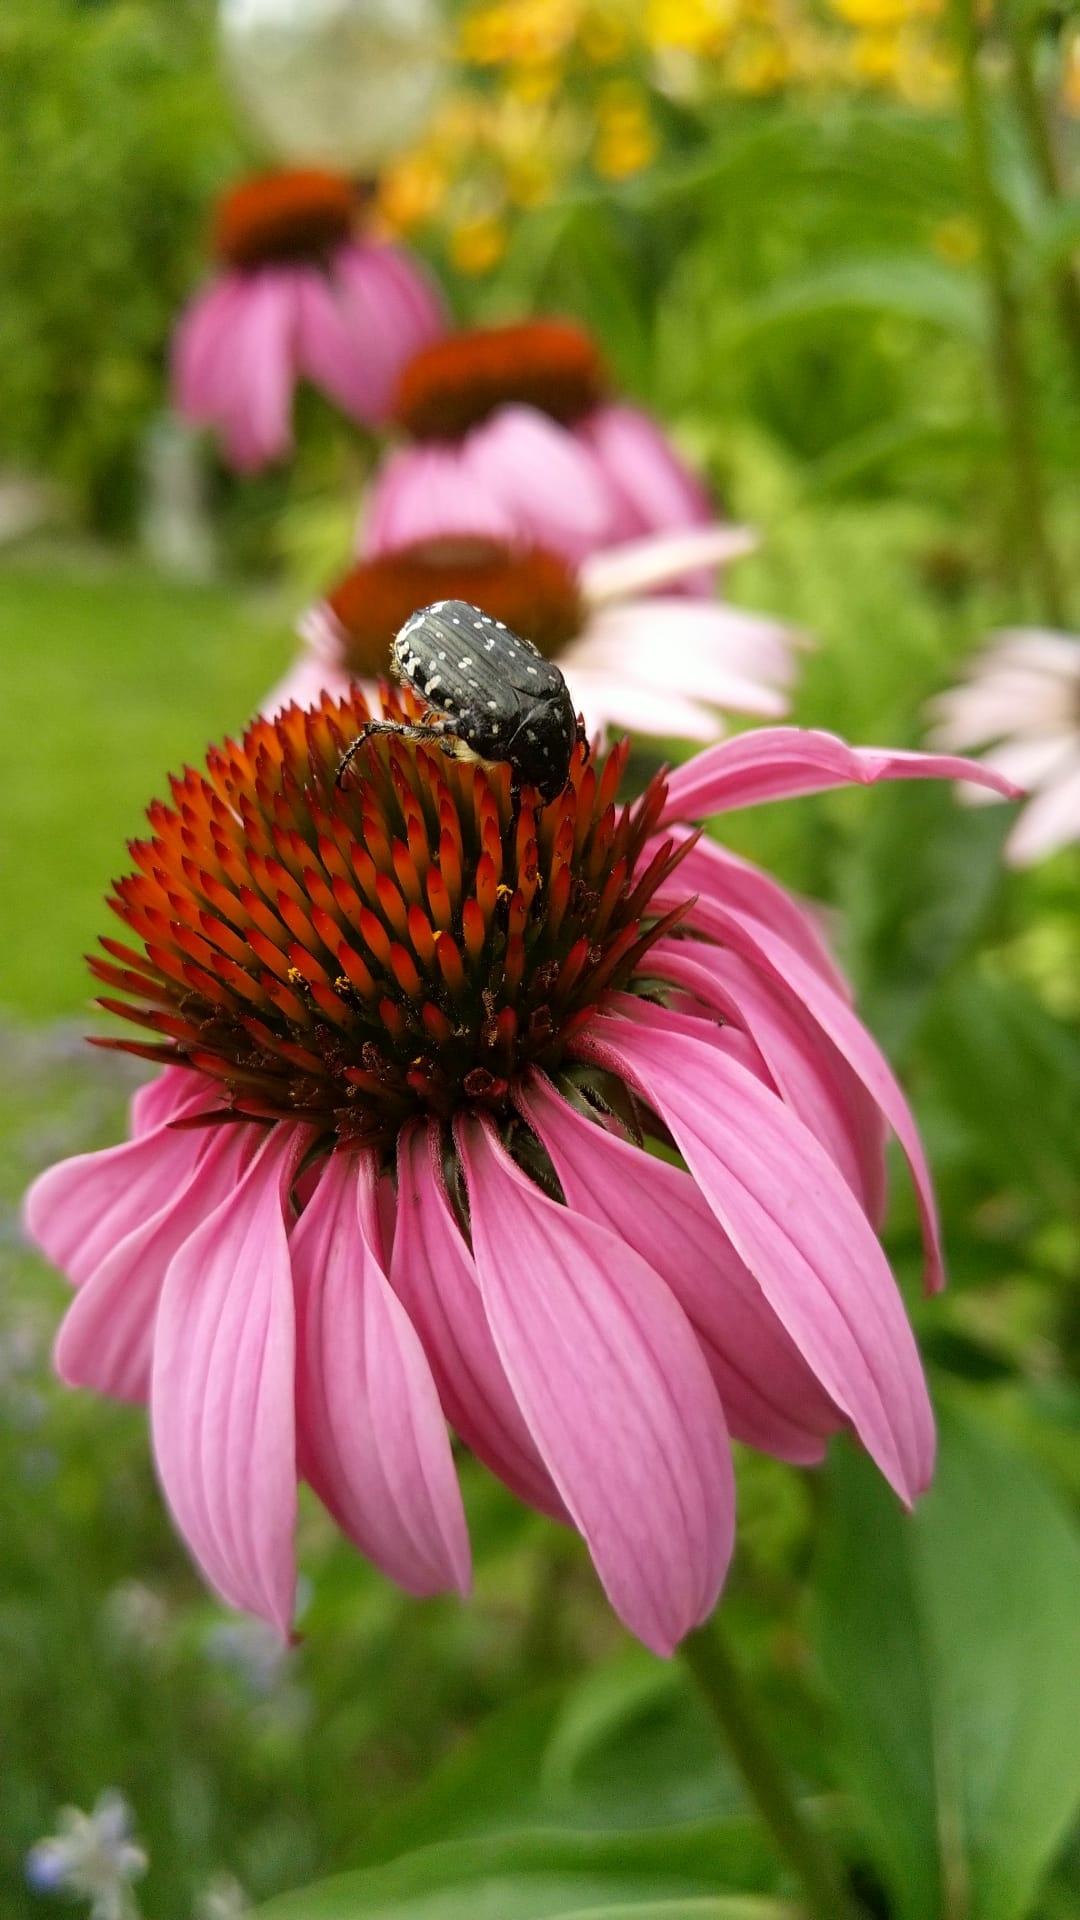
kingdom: Animalia
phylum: Arthropoda
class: Insecta
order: Coleoptera
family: Scarabaeidae
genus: Oxythyrea
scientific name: Oxythyrea funesta
